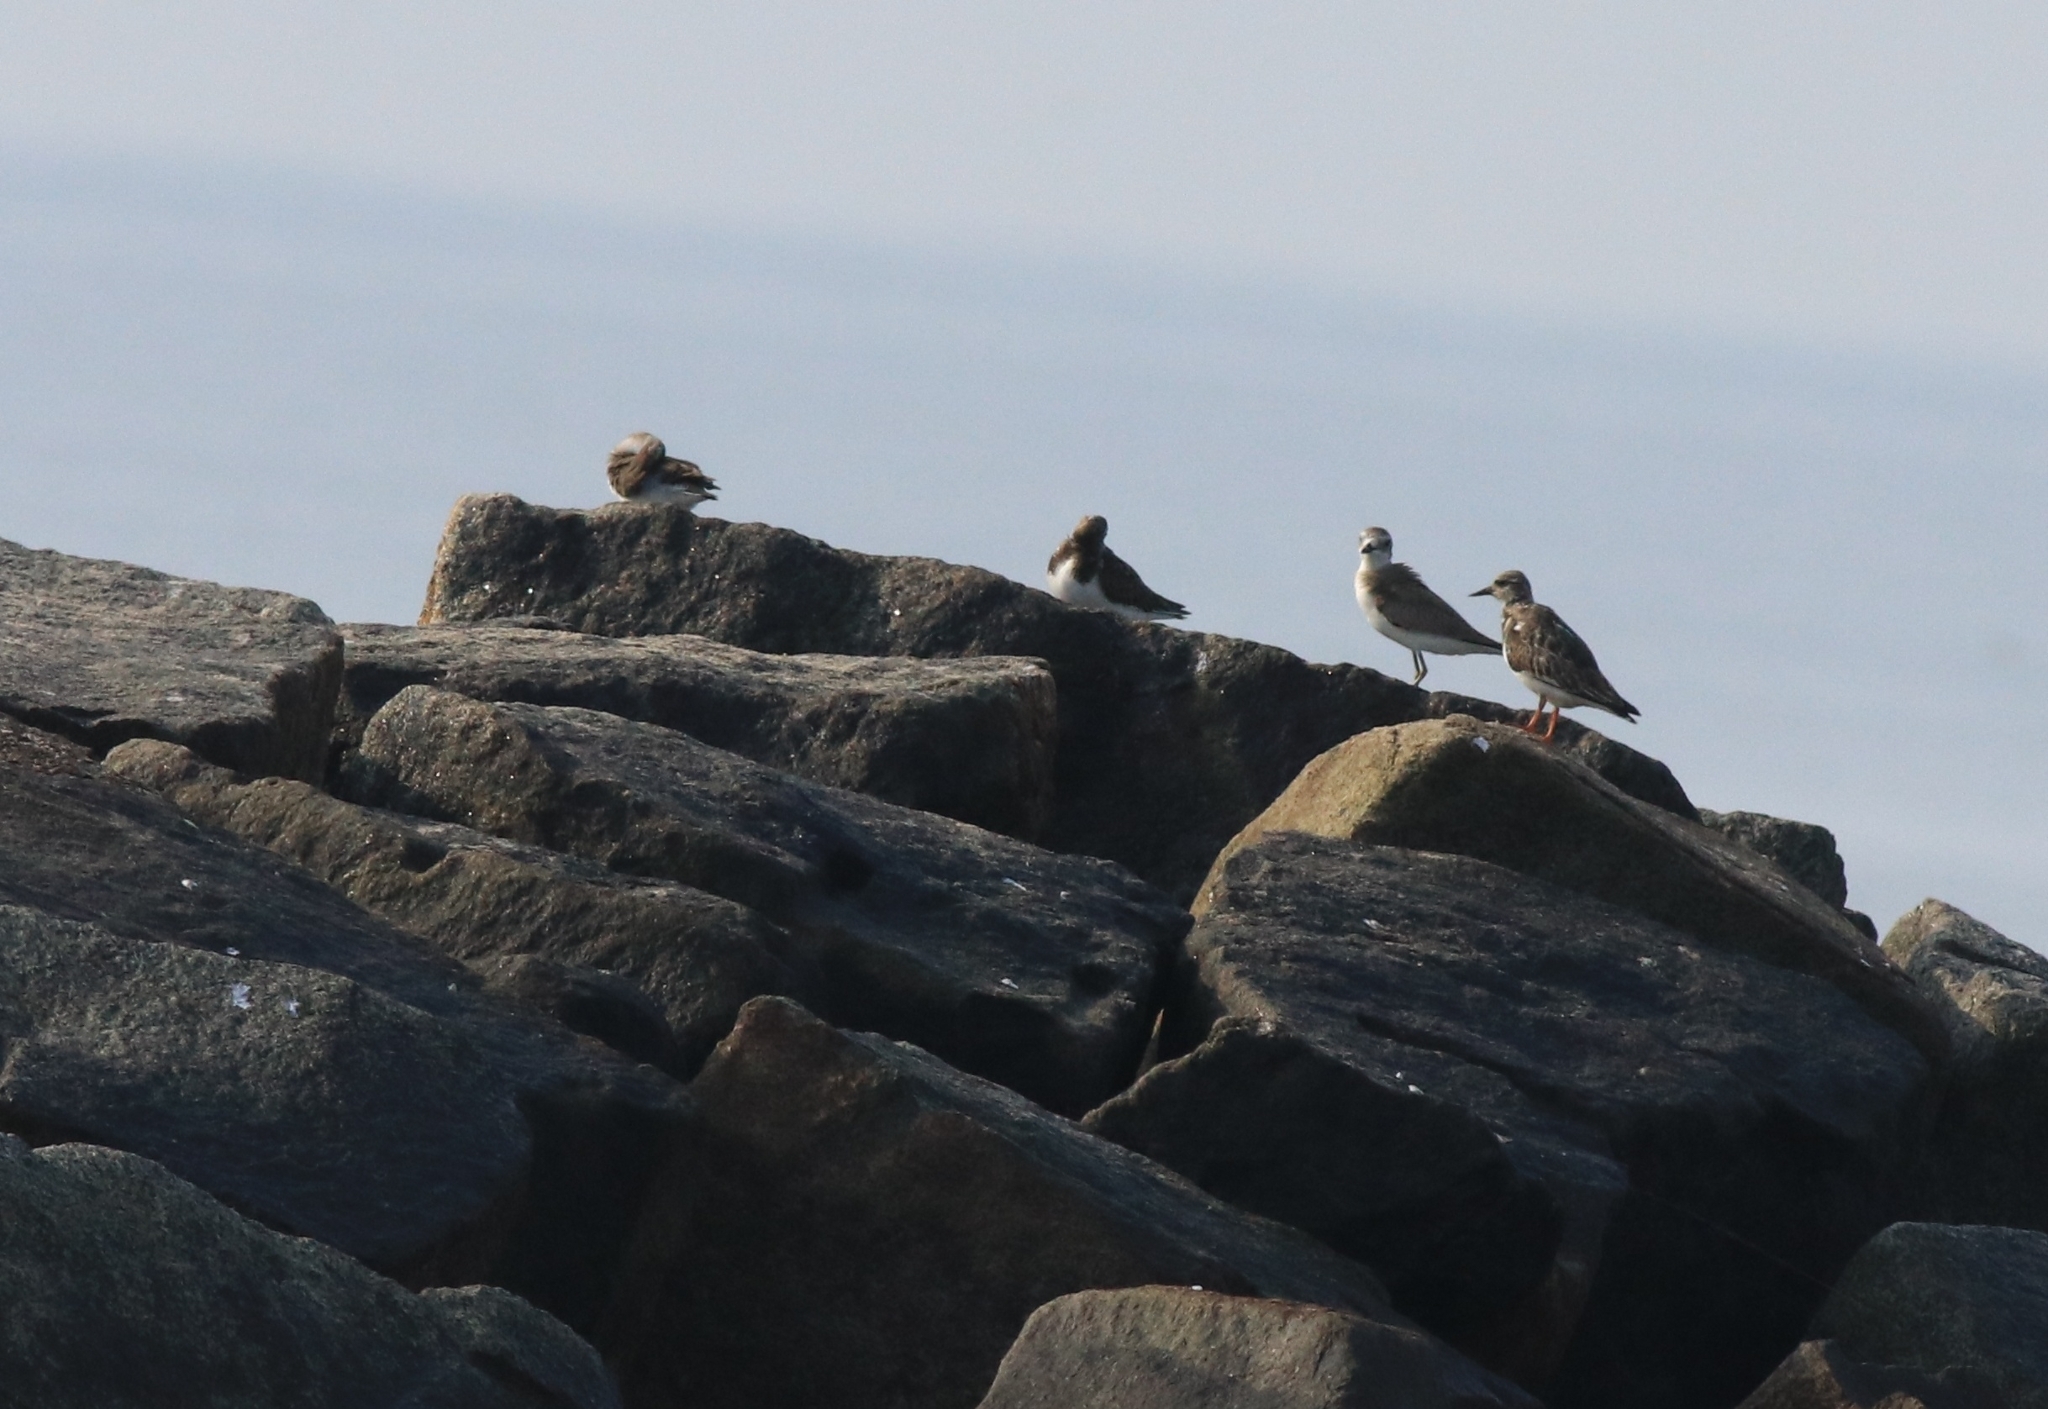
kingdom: Animalia
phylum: Chordata
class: Aves
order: Charadriiformes
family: Scolopacidae
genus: Arenaria
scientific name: Arenaria interpres
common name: Ruddy turnstone
